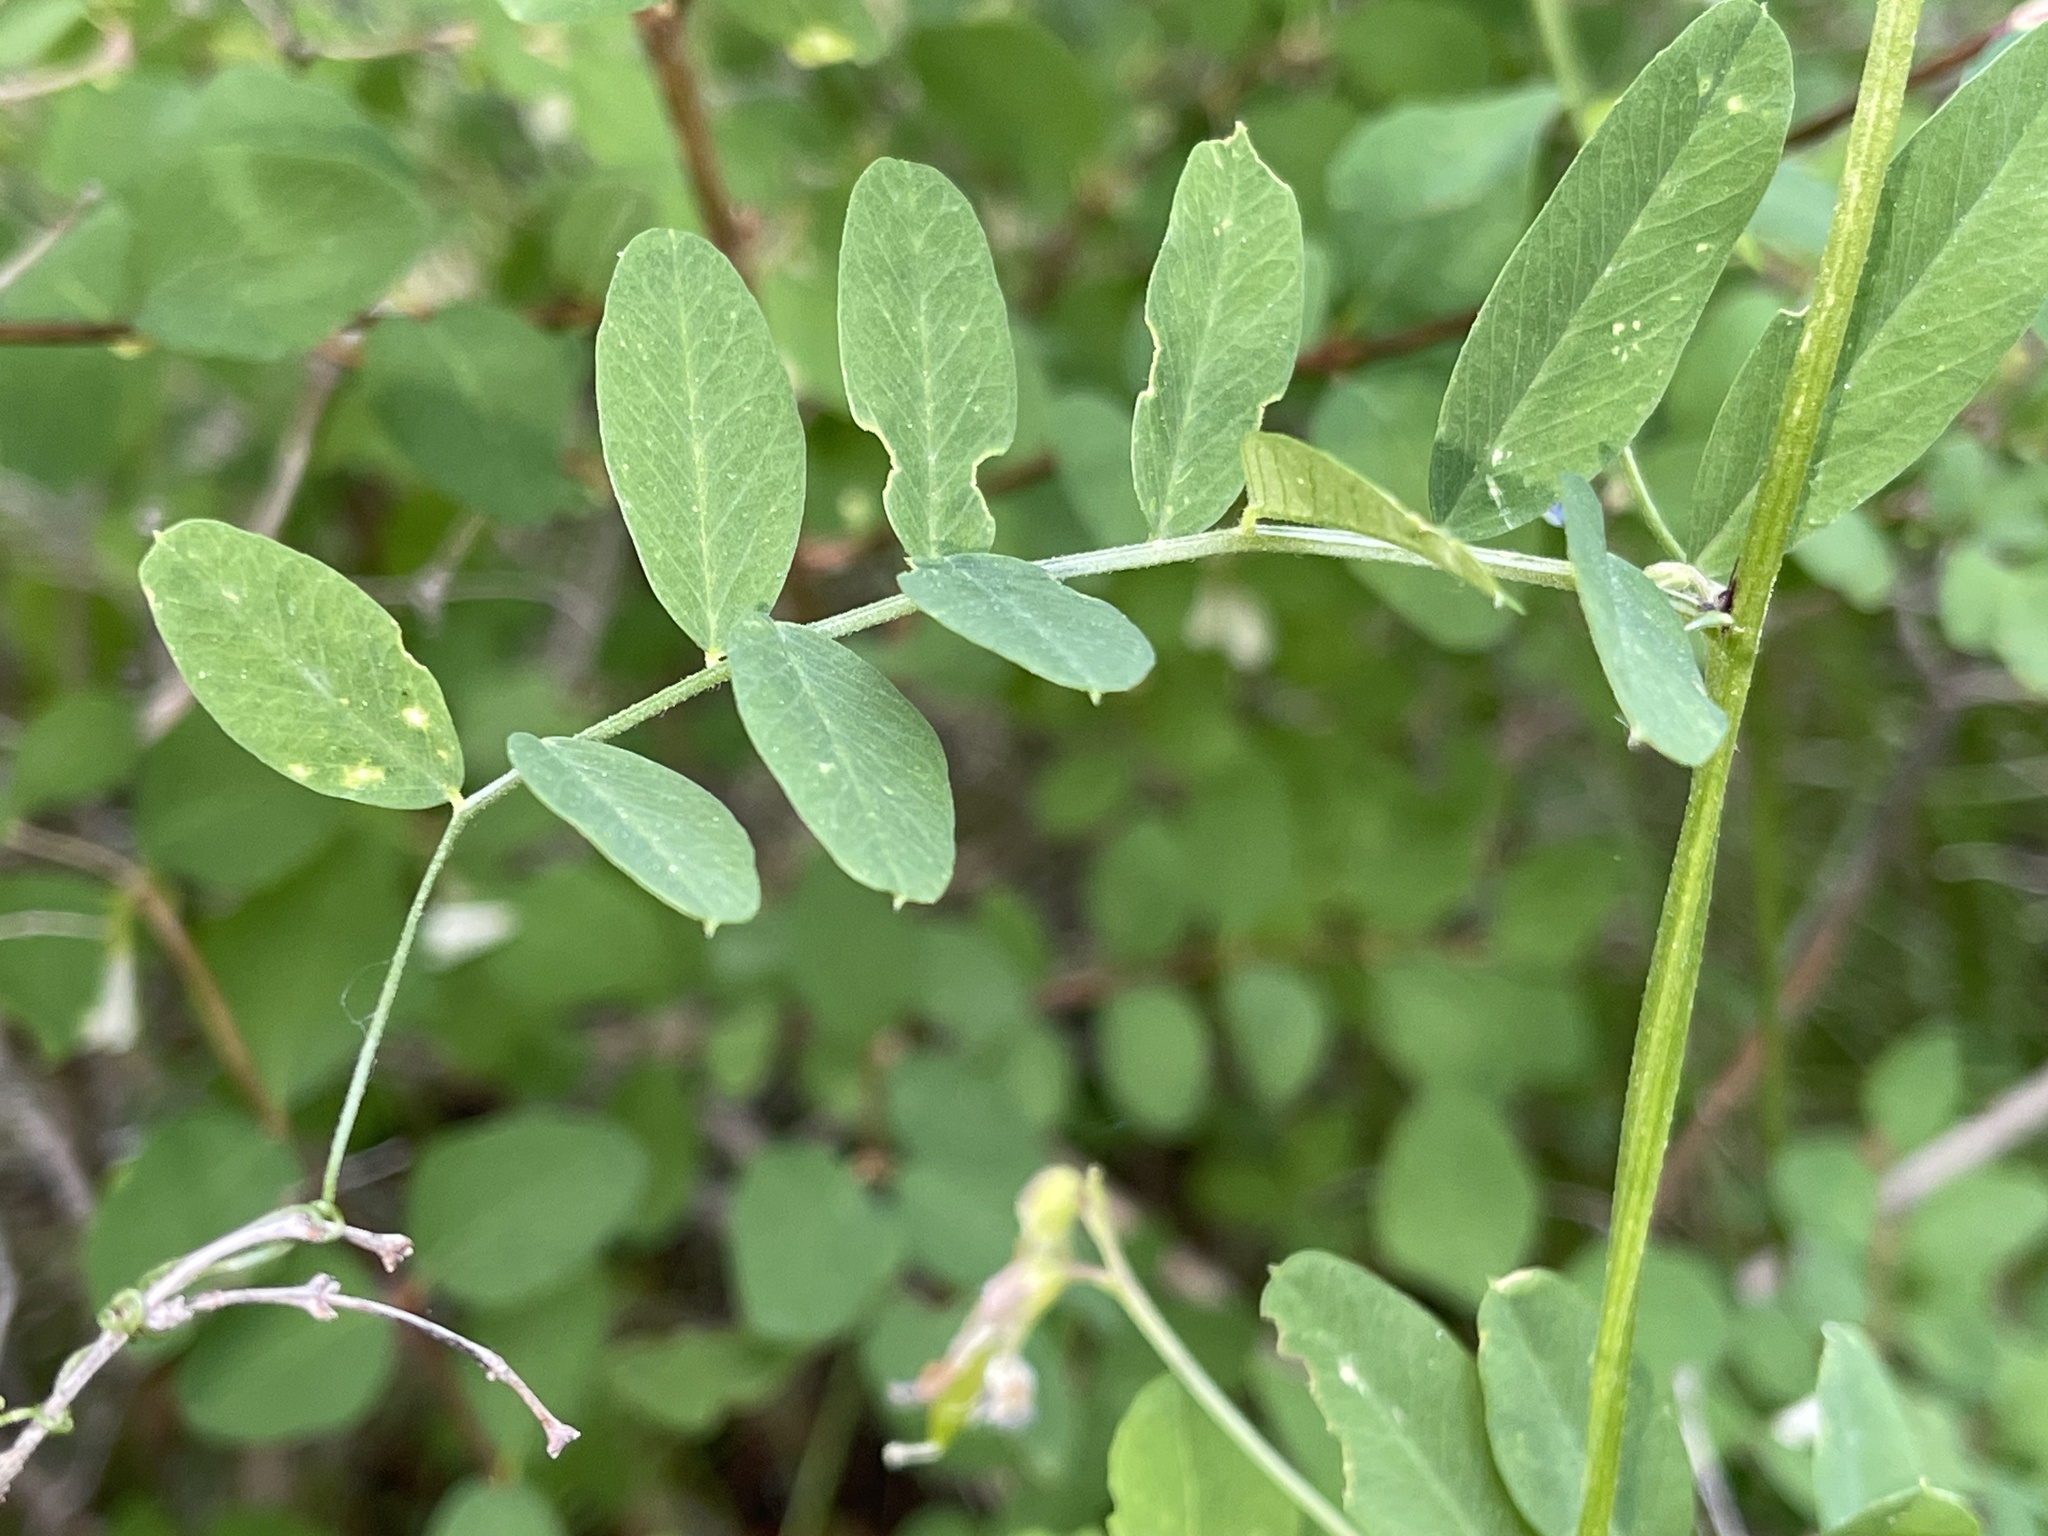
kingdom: Plantae
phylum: Tracheophyta
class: Magnoliopsida
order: Fabales
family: Fabaceae
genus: Vicia
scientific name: Vicia americana
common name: American vetch
